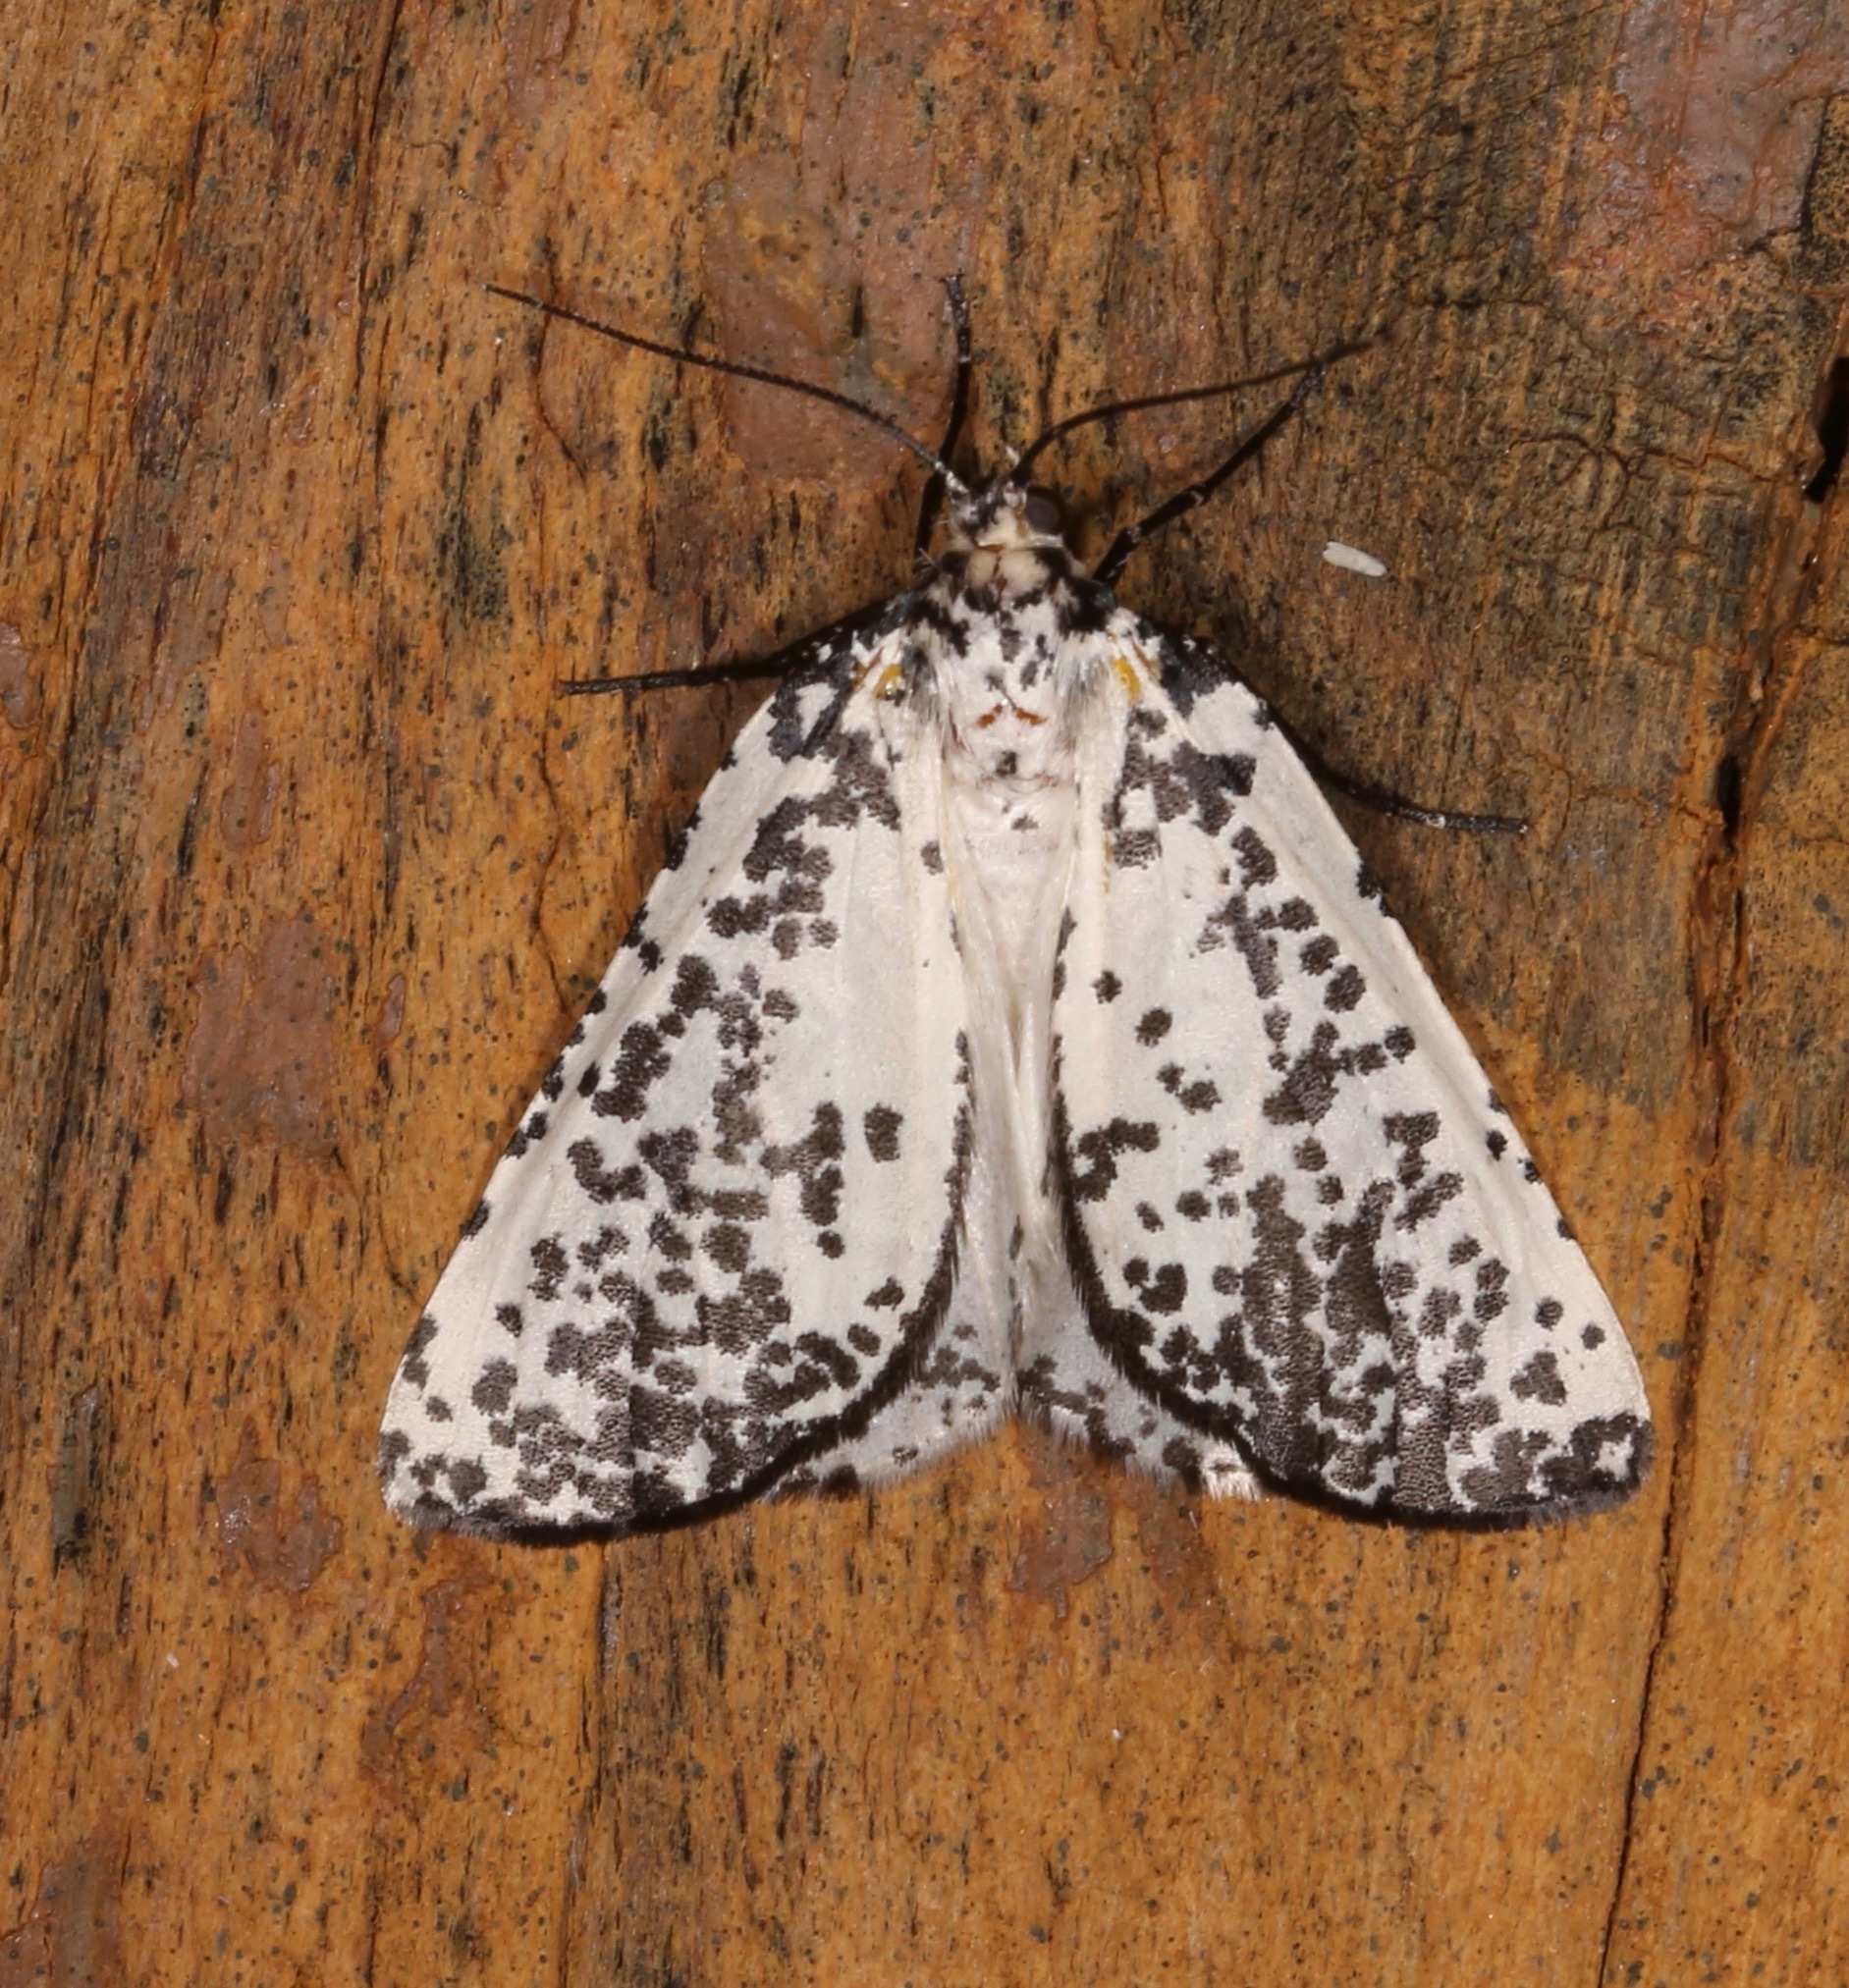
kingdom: Animalia
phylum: Arthropoda
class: Insecta
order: Lepidoptera
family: Geometridae
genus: Eucaterva
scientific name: Eucaterva variaria
